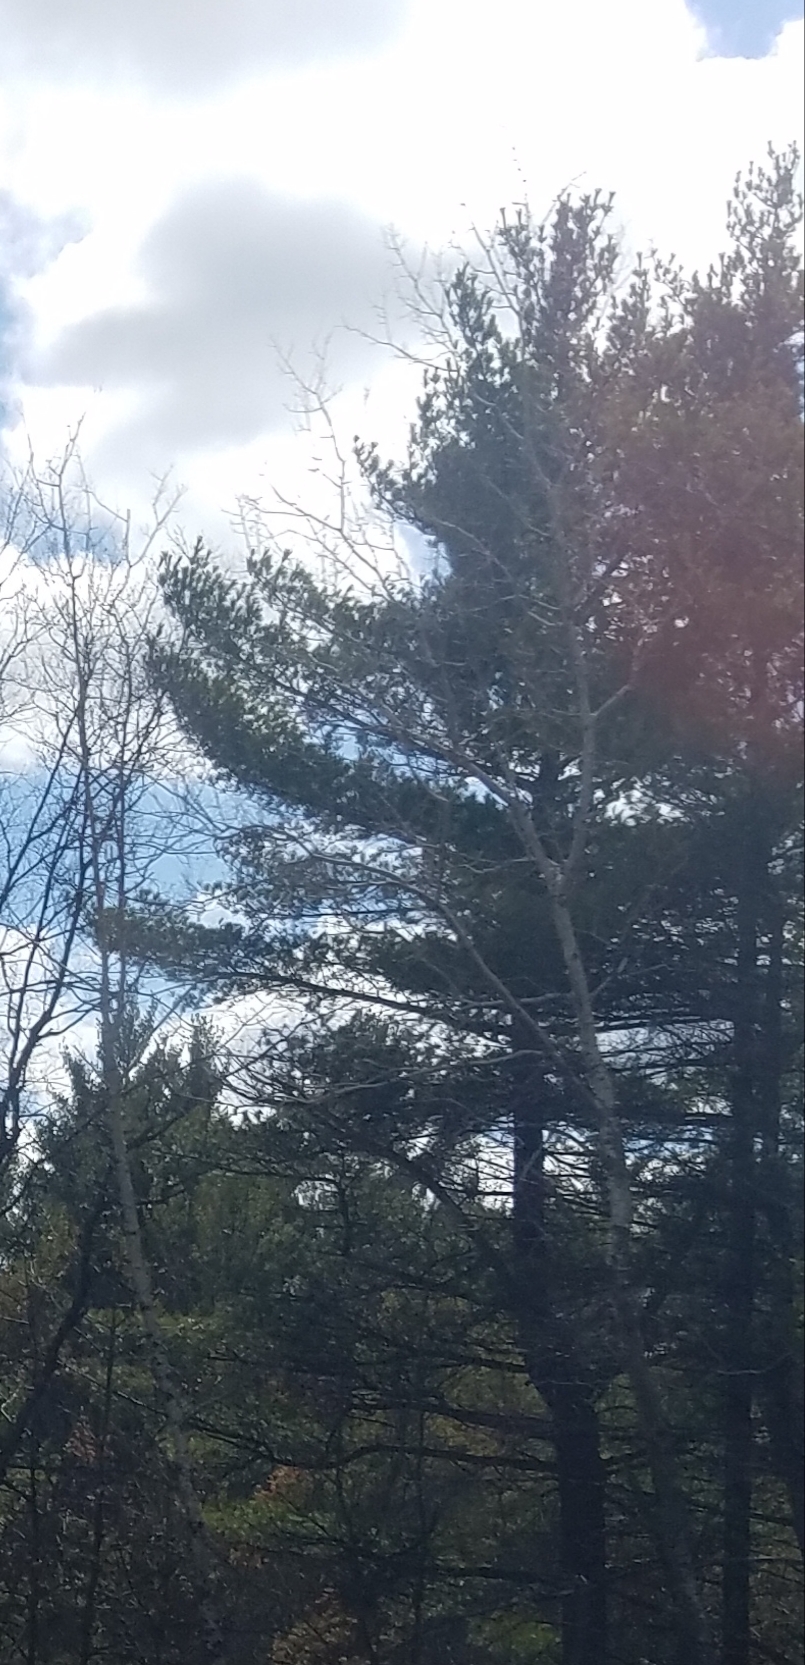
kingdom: Plantae
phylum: Tracheophyta
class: Pinopsida
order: Pinales
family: Pinaceae
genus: Pinus
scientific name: Pinus strobus
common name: Weymouth pine
